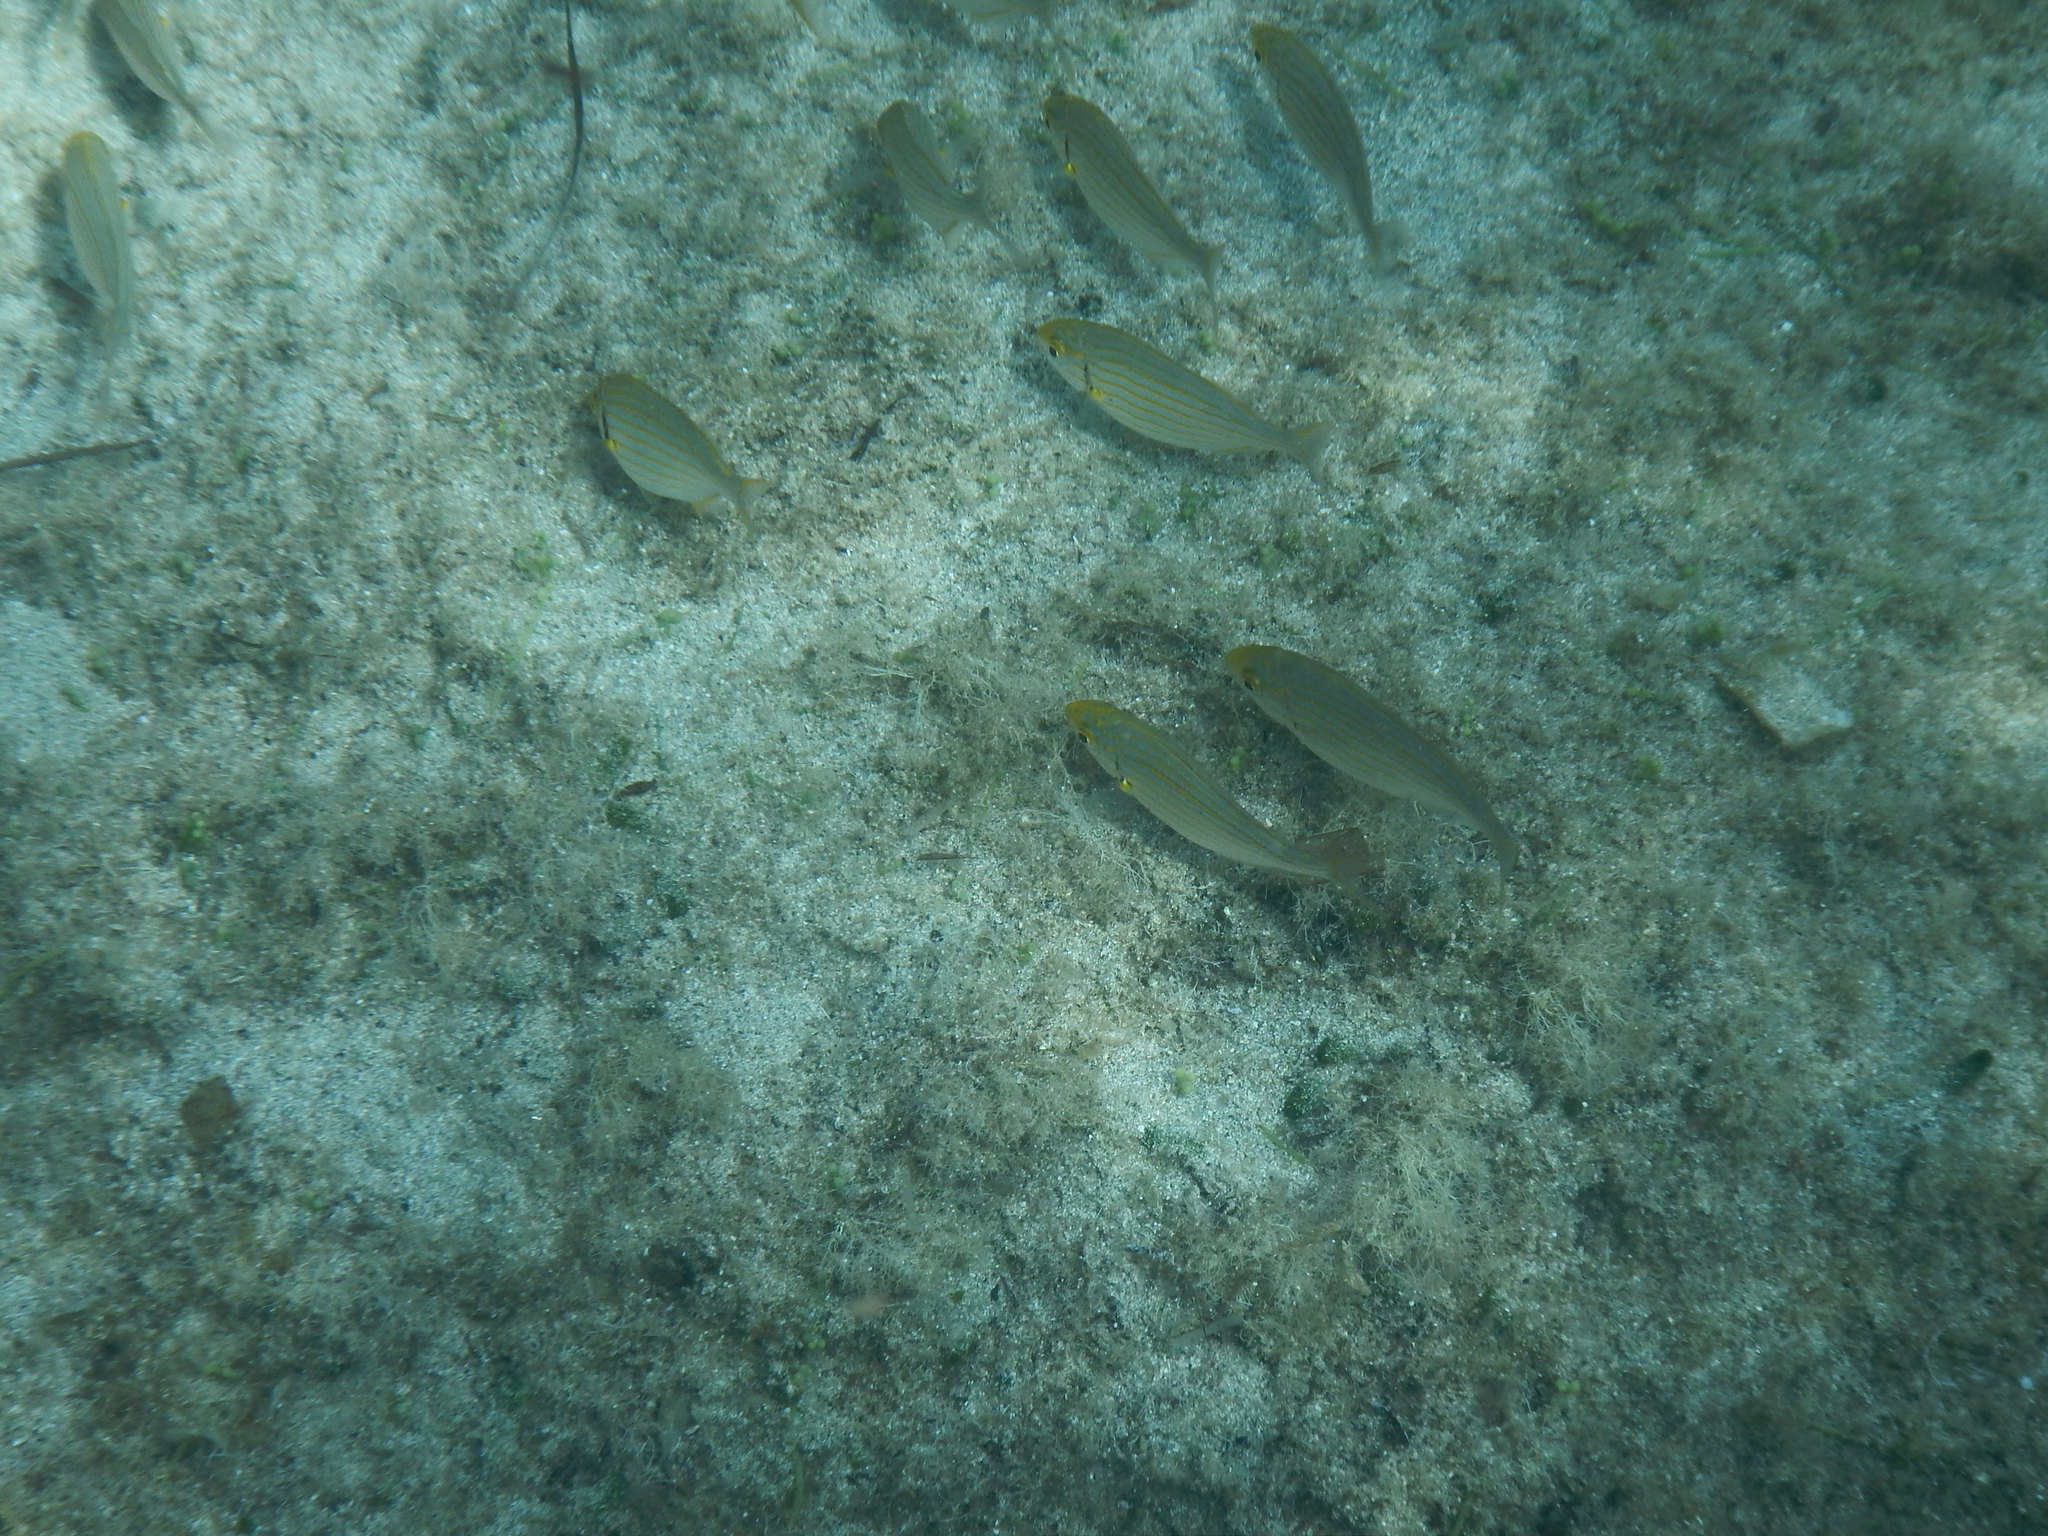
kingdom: Animalia
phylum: Chordata
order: Perciformes
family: Sparidae
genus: Sarpa
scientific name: Sarpa salpa
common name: Salema
